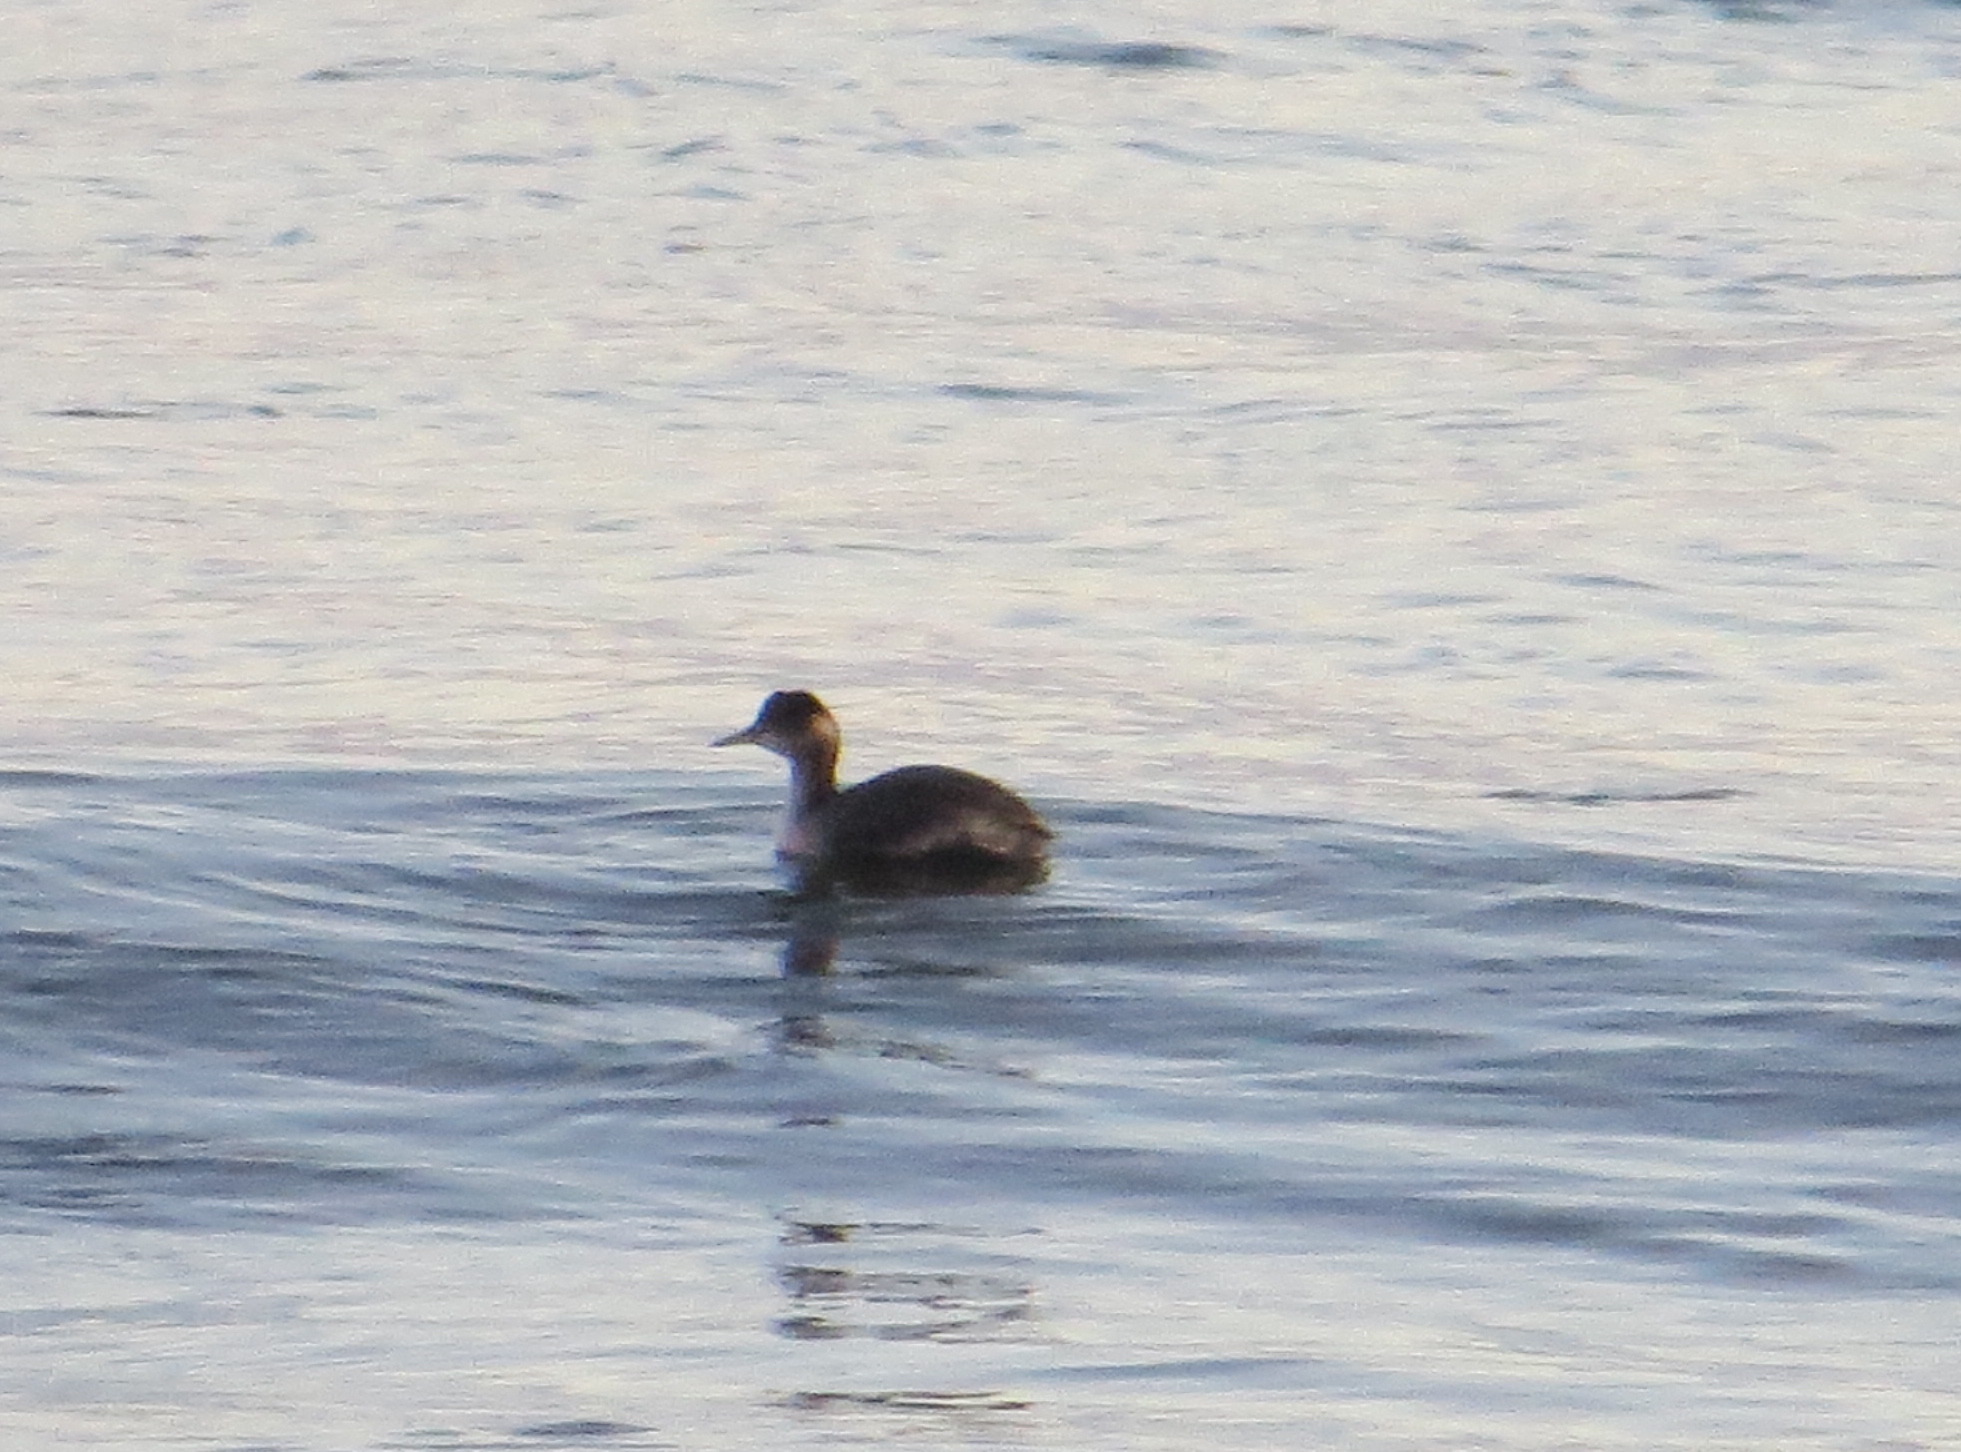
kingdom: Animalia
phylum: Chordata
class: Aves
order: Podicipediformes
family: Podicipedidae
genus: Podiceps
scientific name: Podiceps nigricollis
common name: Black-necked grebe
